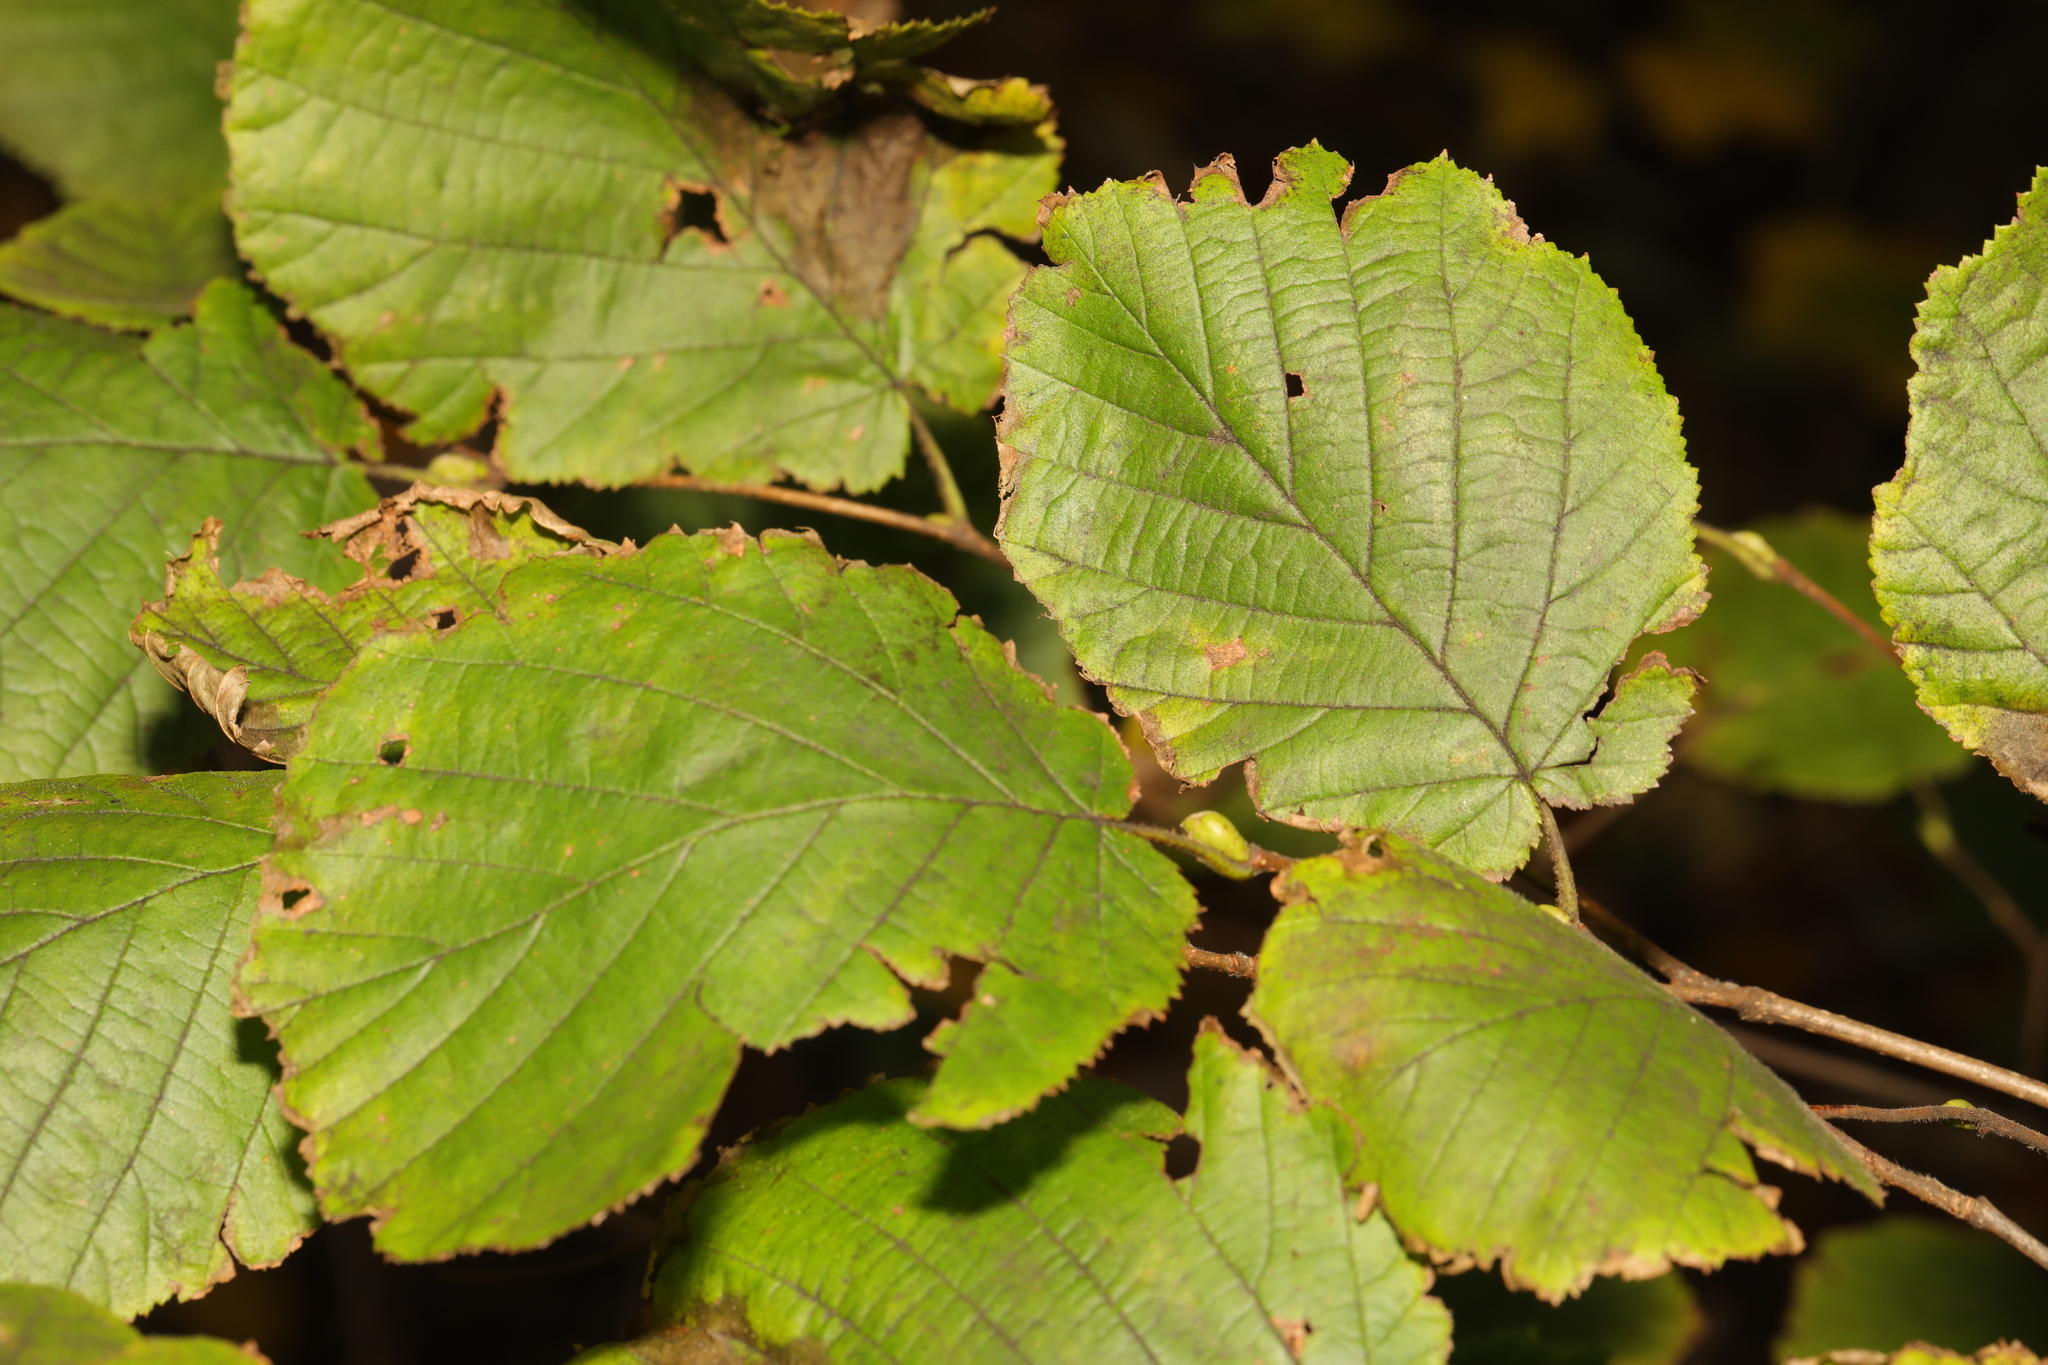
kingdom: Plantae
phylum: Tracheophyta
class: Magnoliopsida
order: Fagales
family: Betulaceae
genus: Corylus
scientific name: Corylus avellana
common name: European hazel
